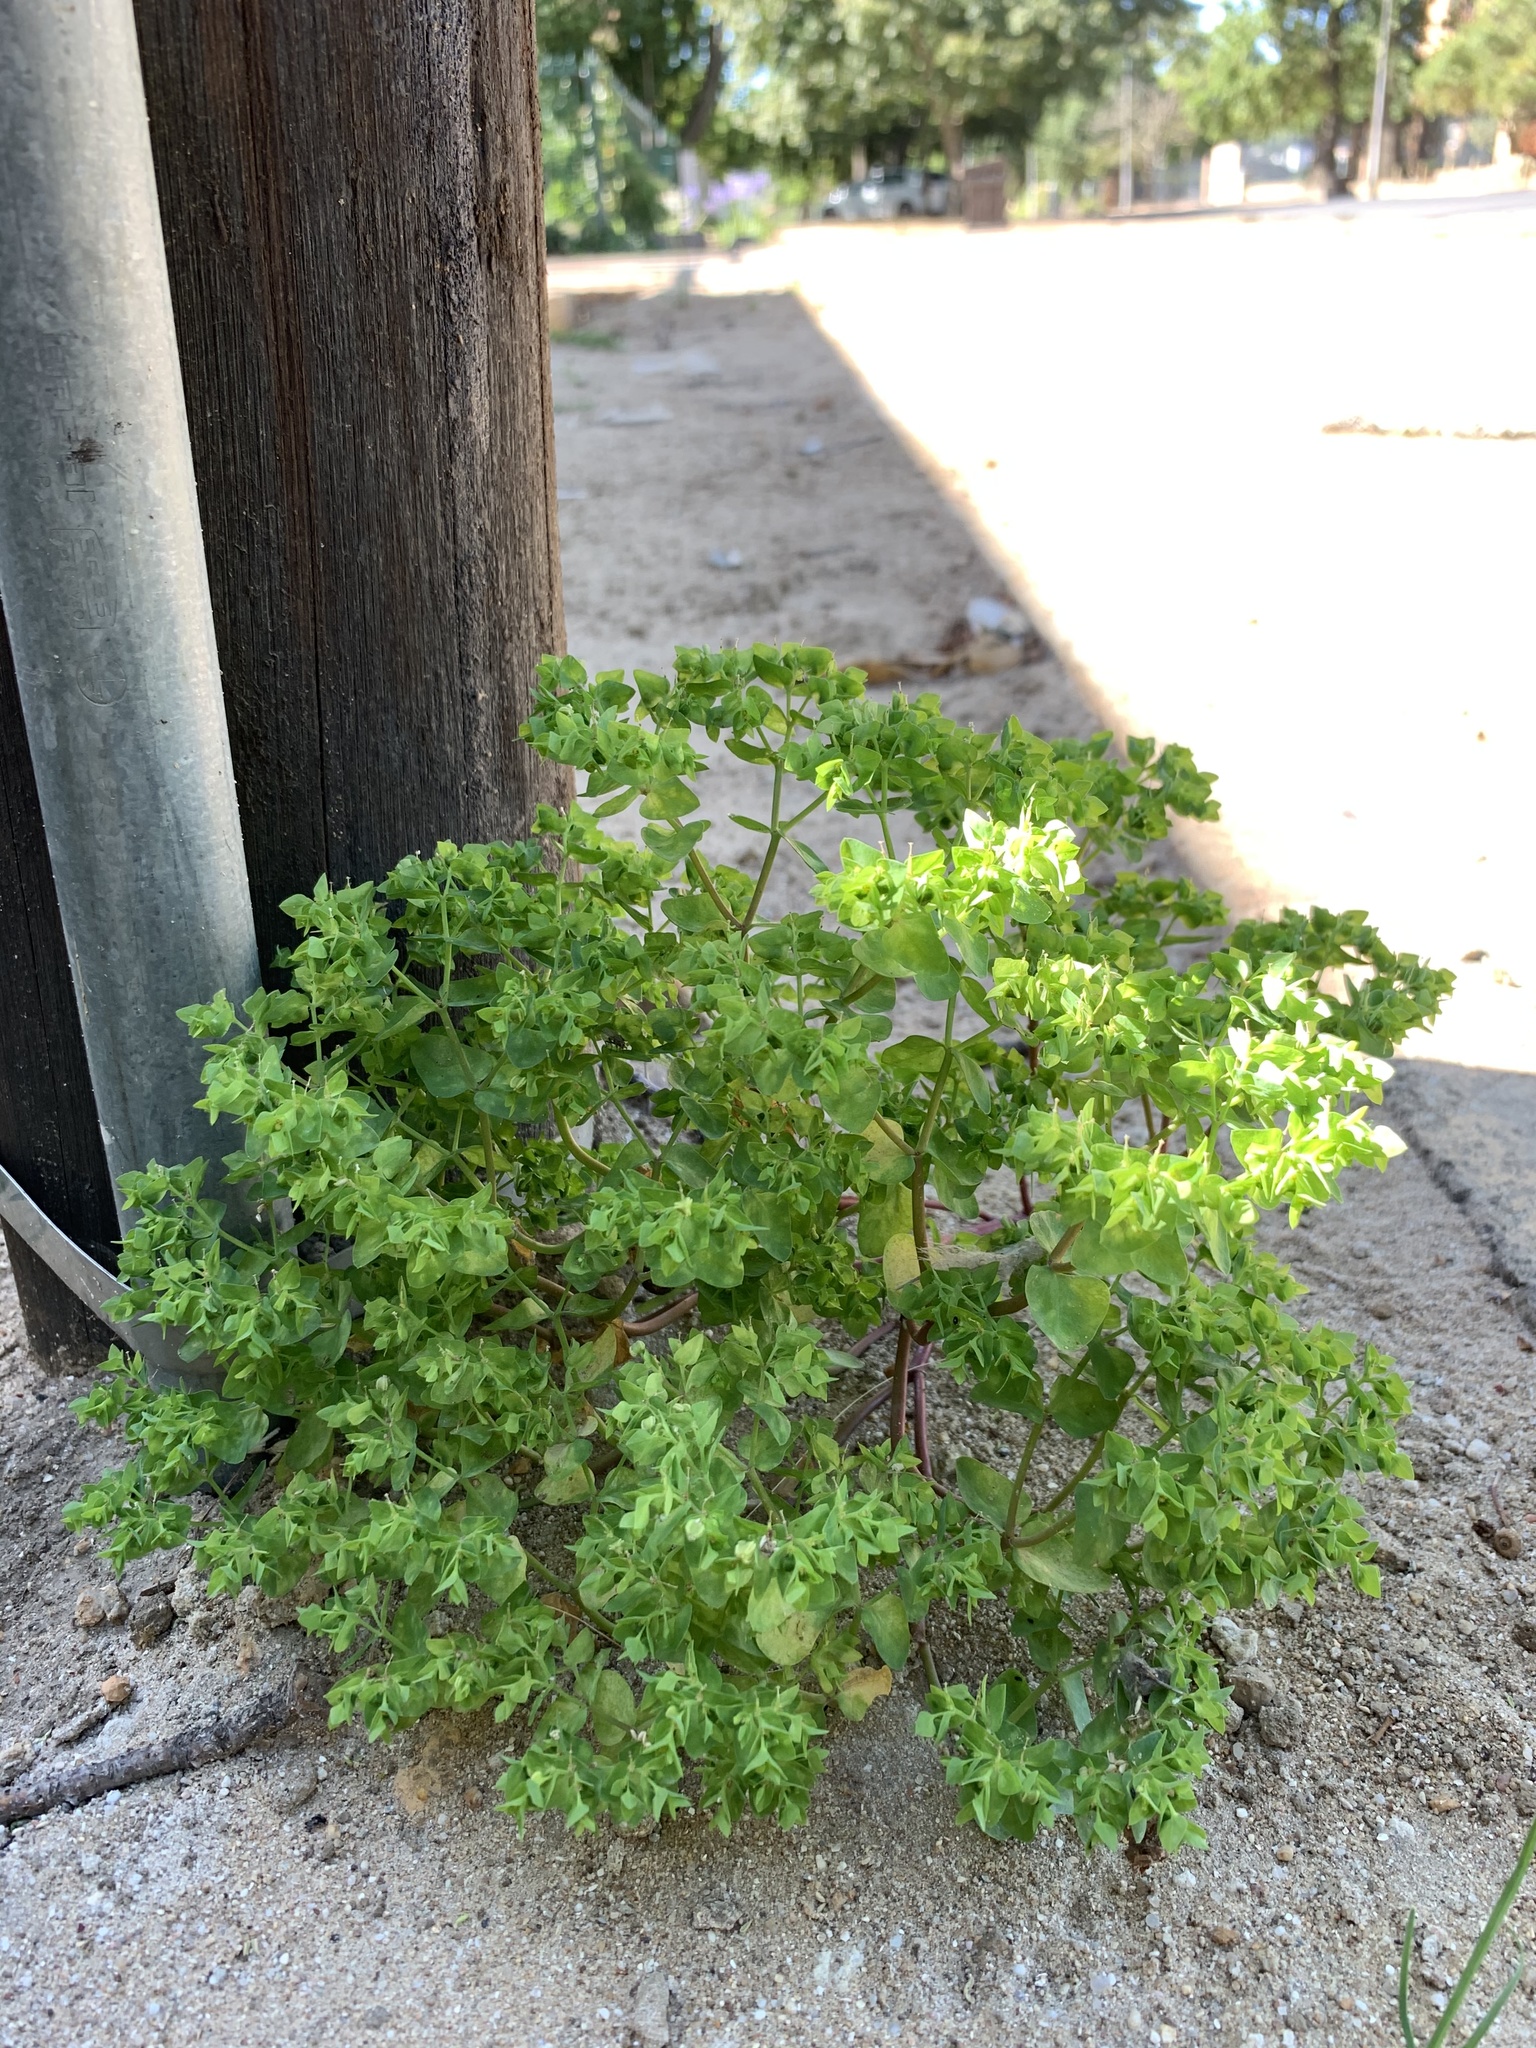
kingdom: Plantae
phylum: Tracheophyta
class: Magnoliopsida
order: Malpighiales
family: Euphorbiaceae
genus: Euphorbia
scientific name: Euphorbia peplus
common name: Petty spurge
